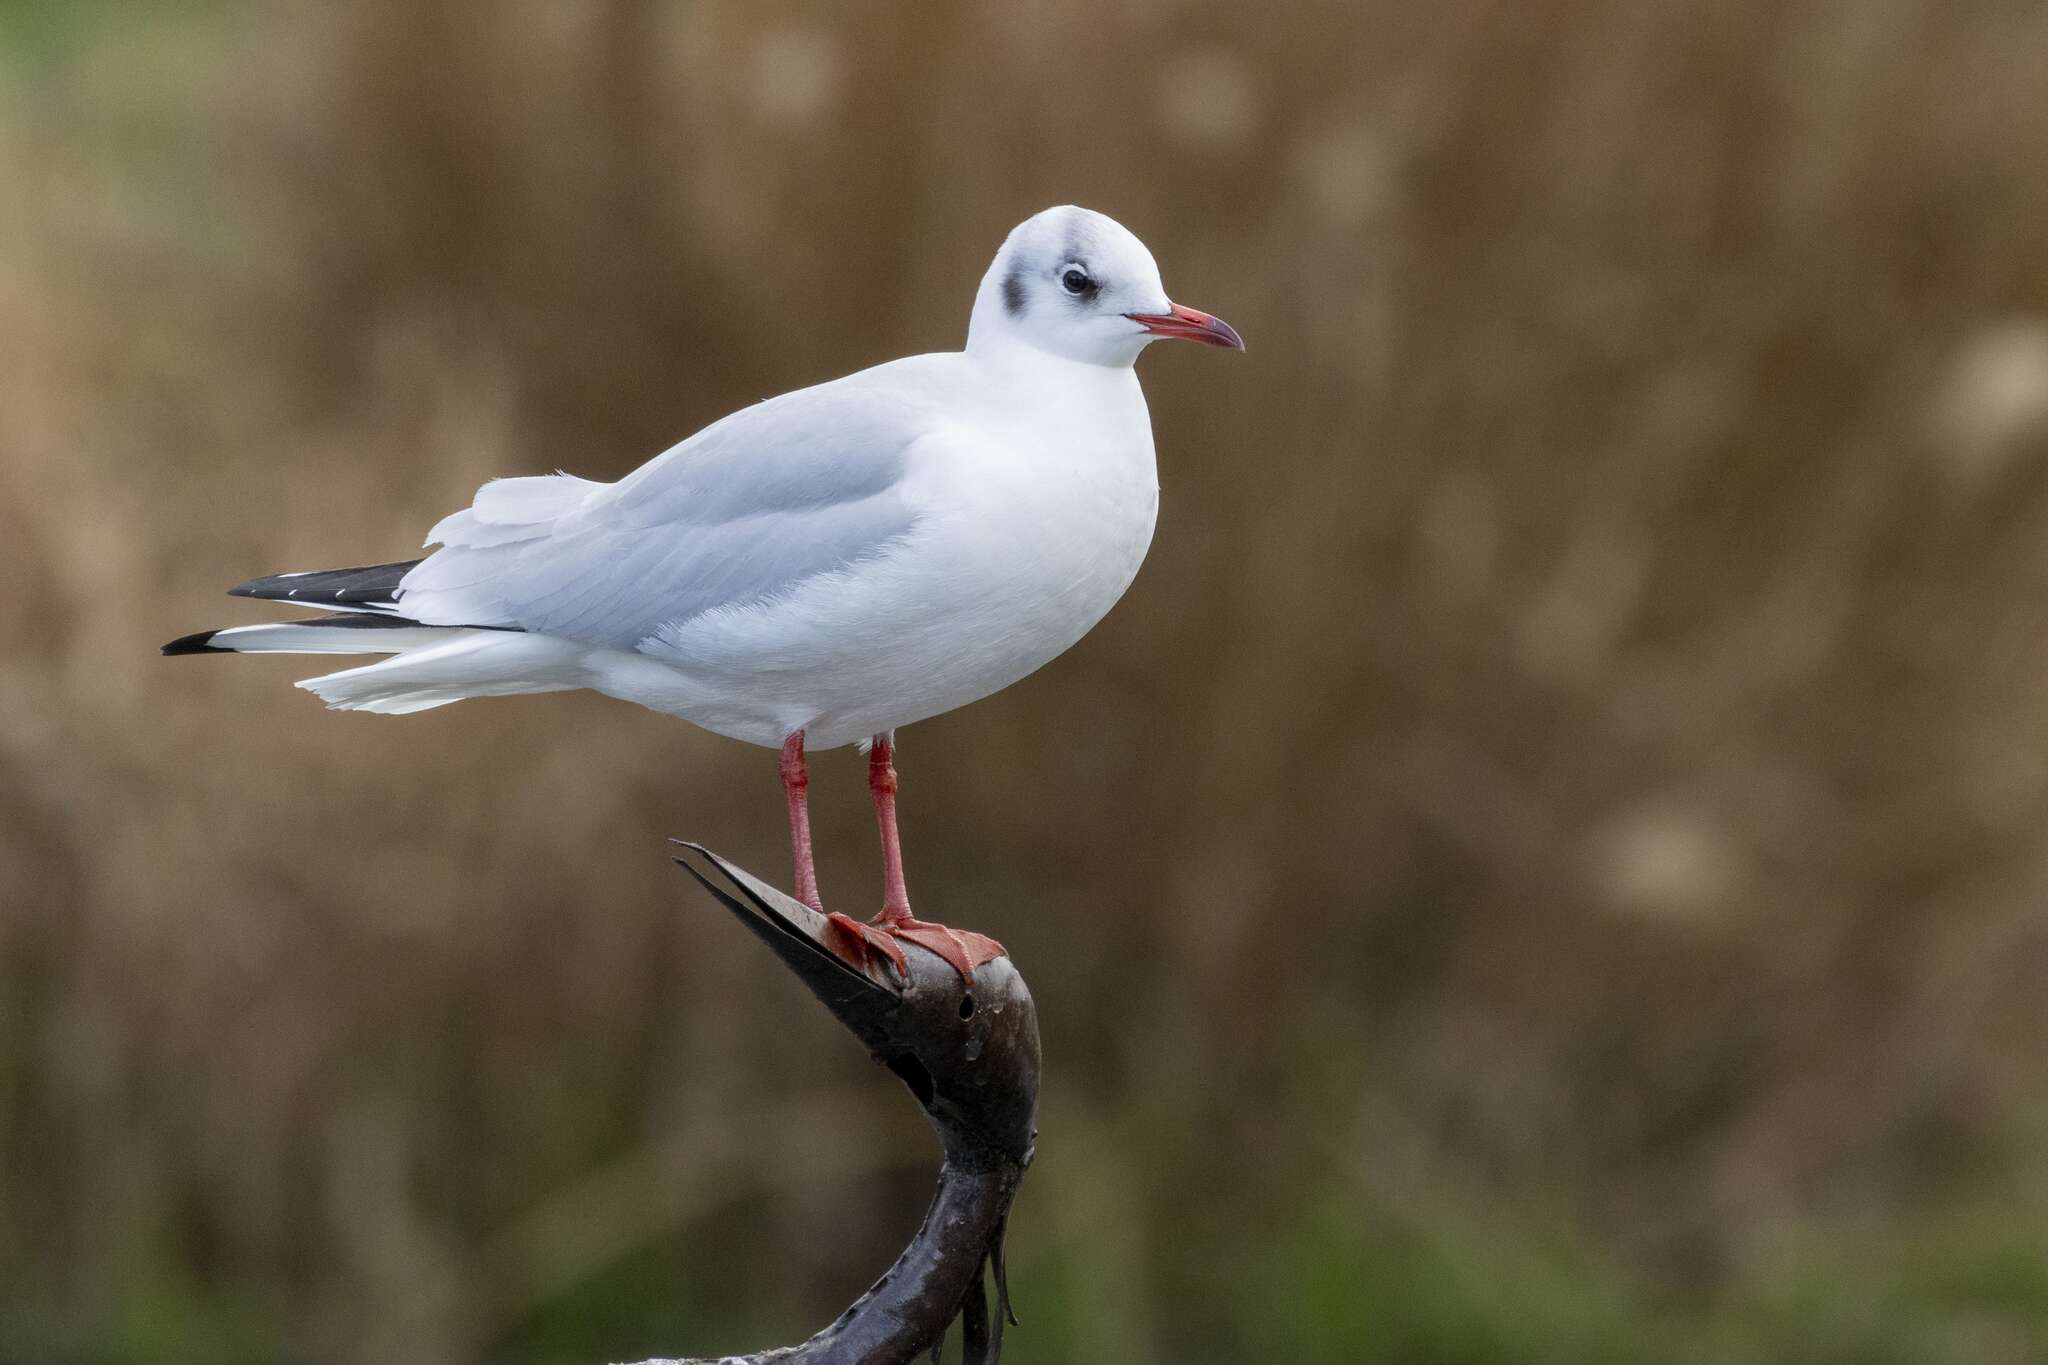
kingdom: Animalia
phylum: Chordata
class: Aves
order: Charadriiformes
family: Laridae
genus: Chroicocephalus
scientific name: Chroicocephalus ridibundus
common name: Black-headed gull
